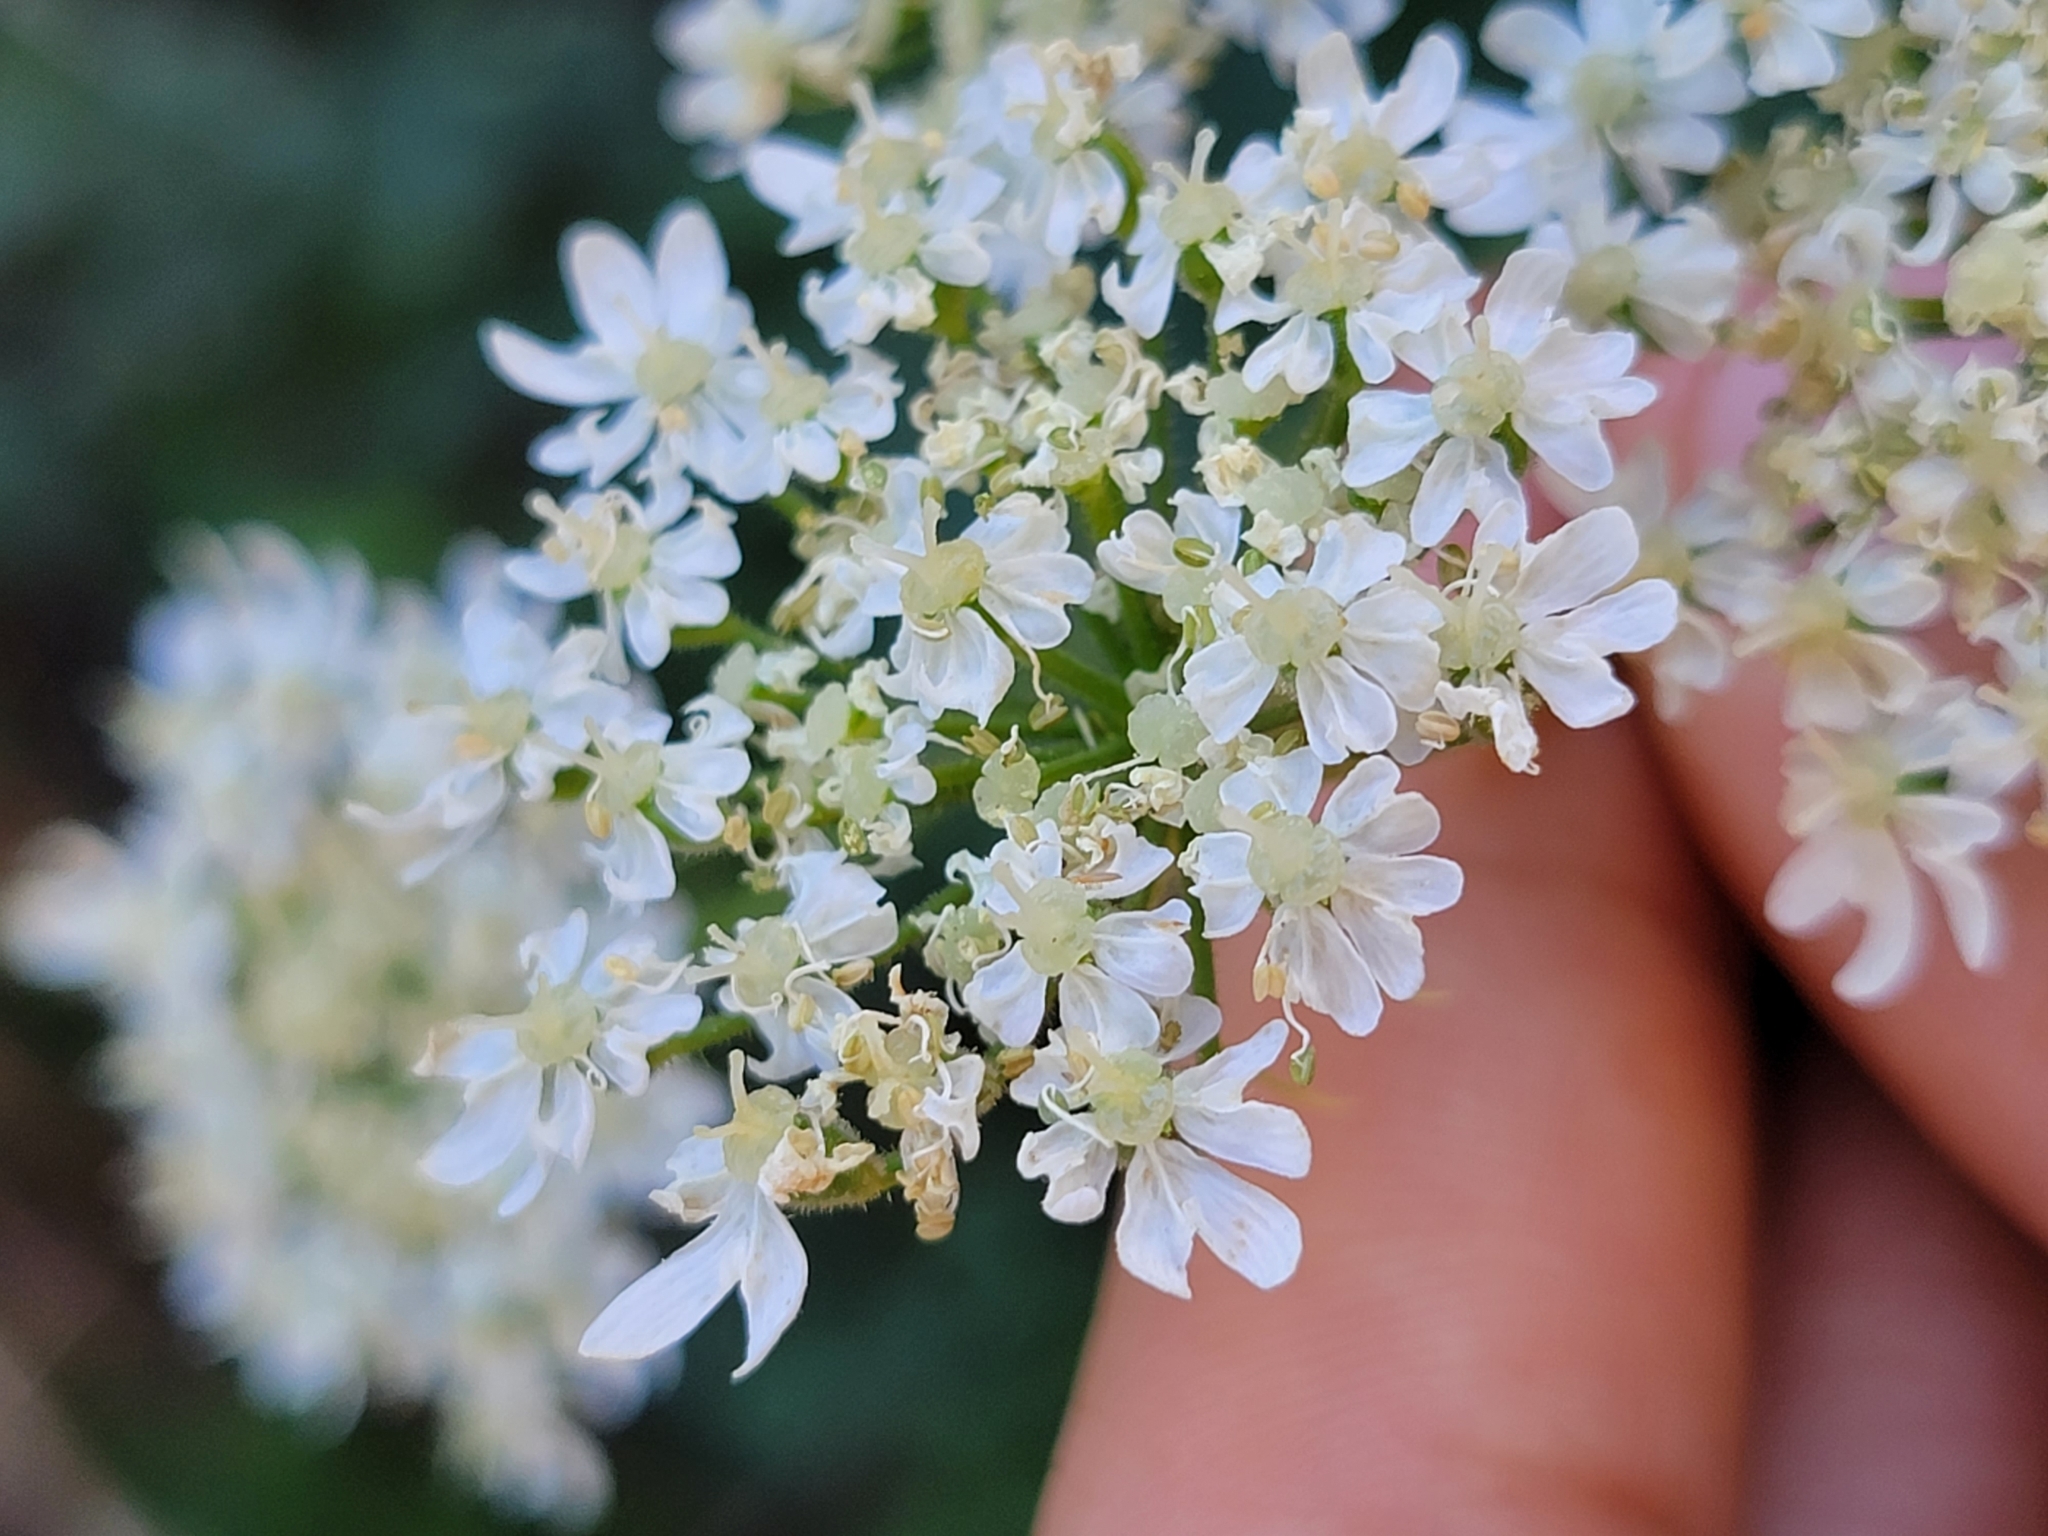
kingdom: Plantae
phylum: Tracheophyta
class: Magnoliopsida
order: Apiales
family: Apiaceae
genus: Heracleum
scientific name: Heracleum maximum
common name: American cow parsnip
